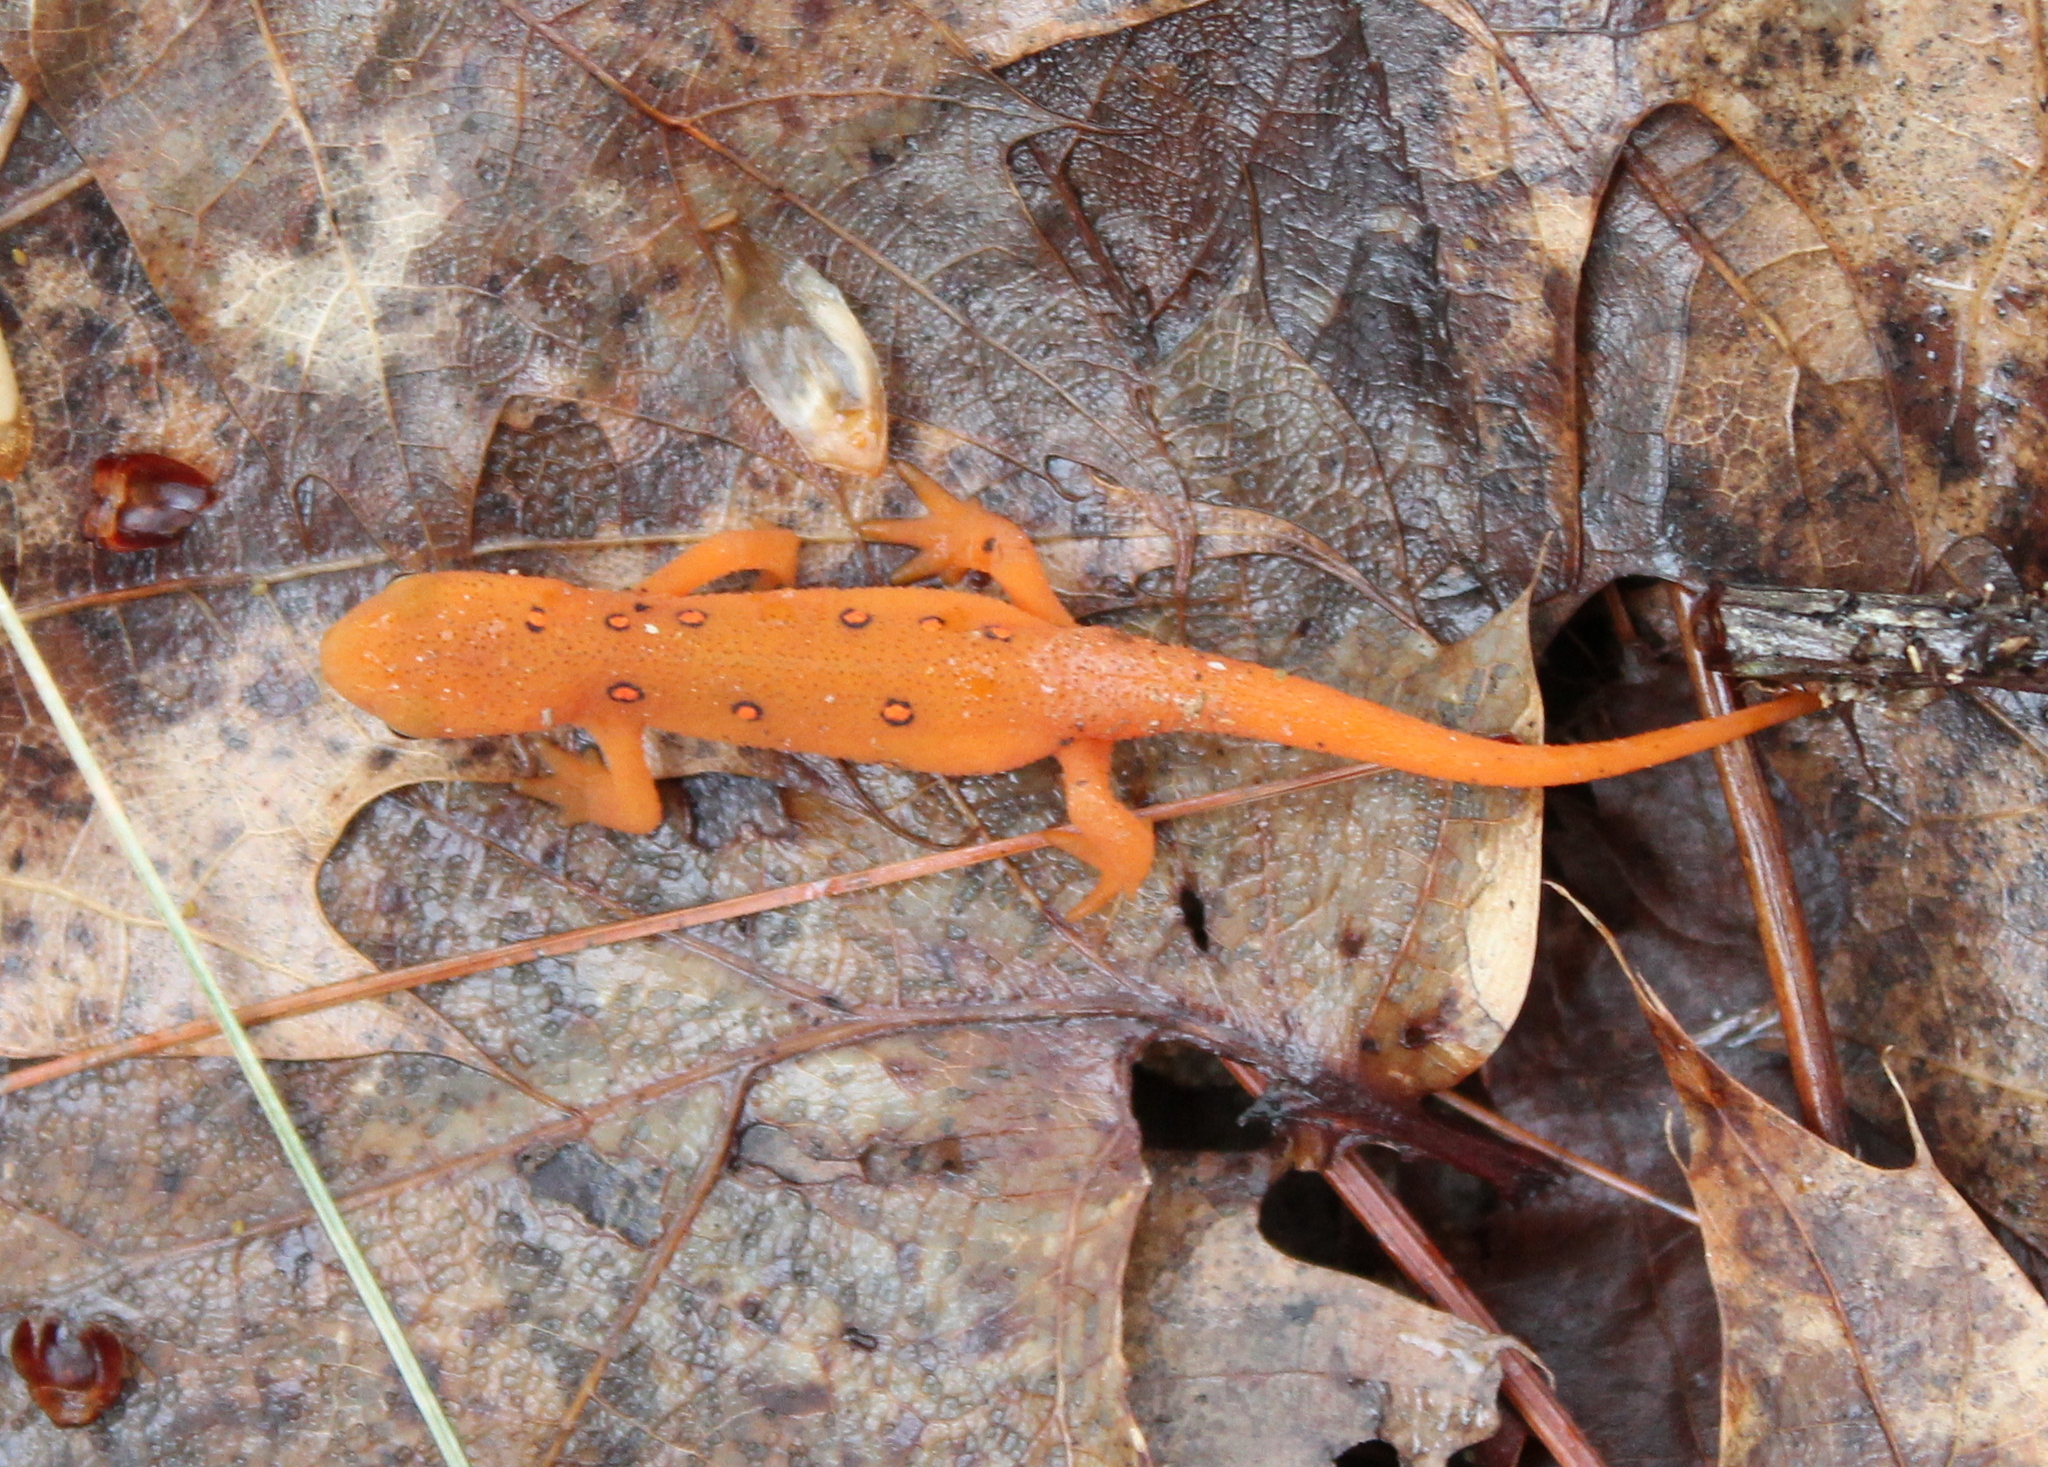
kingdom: Animalia
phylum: Chordata
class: Amphibia
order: Caudata
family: Salamandridae
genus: Notophthalmus
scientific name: Notophthalmus viridescens
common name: Eastern newt
